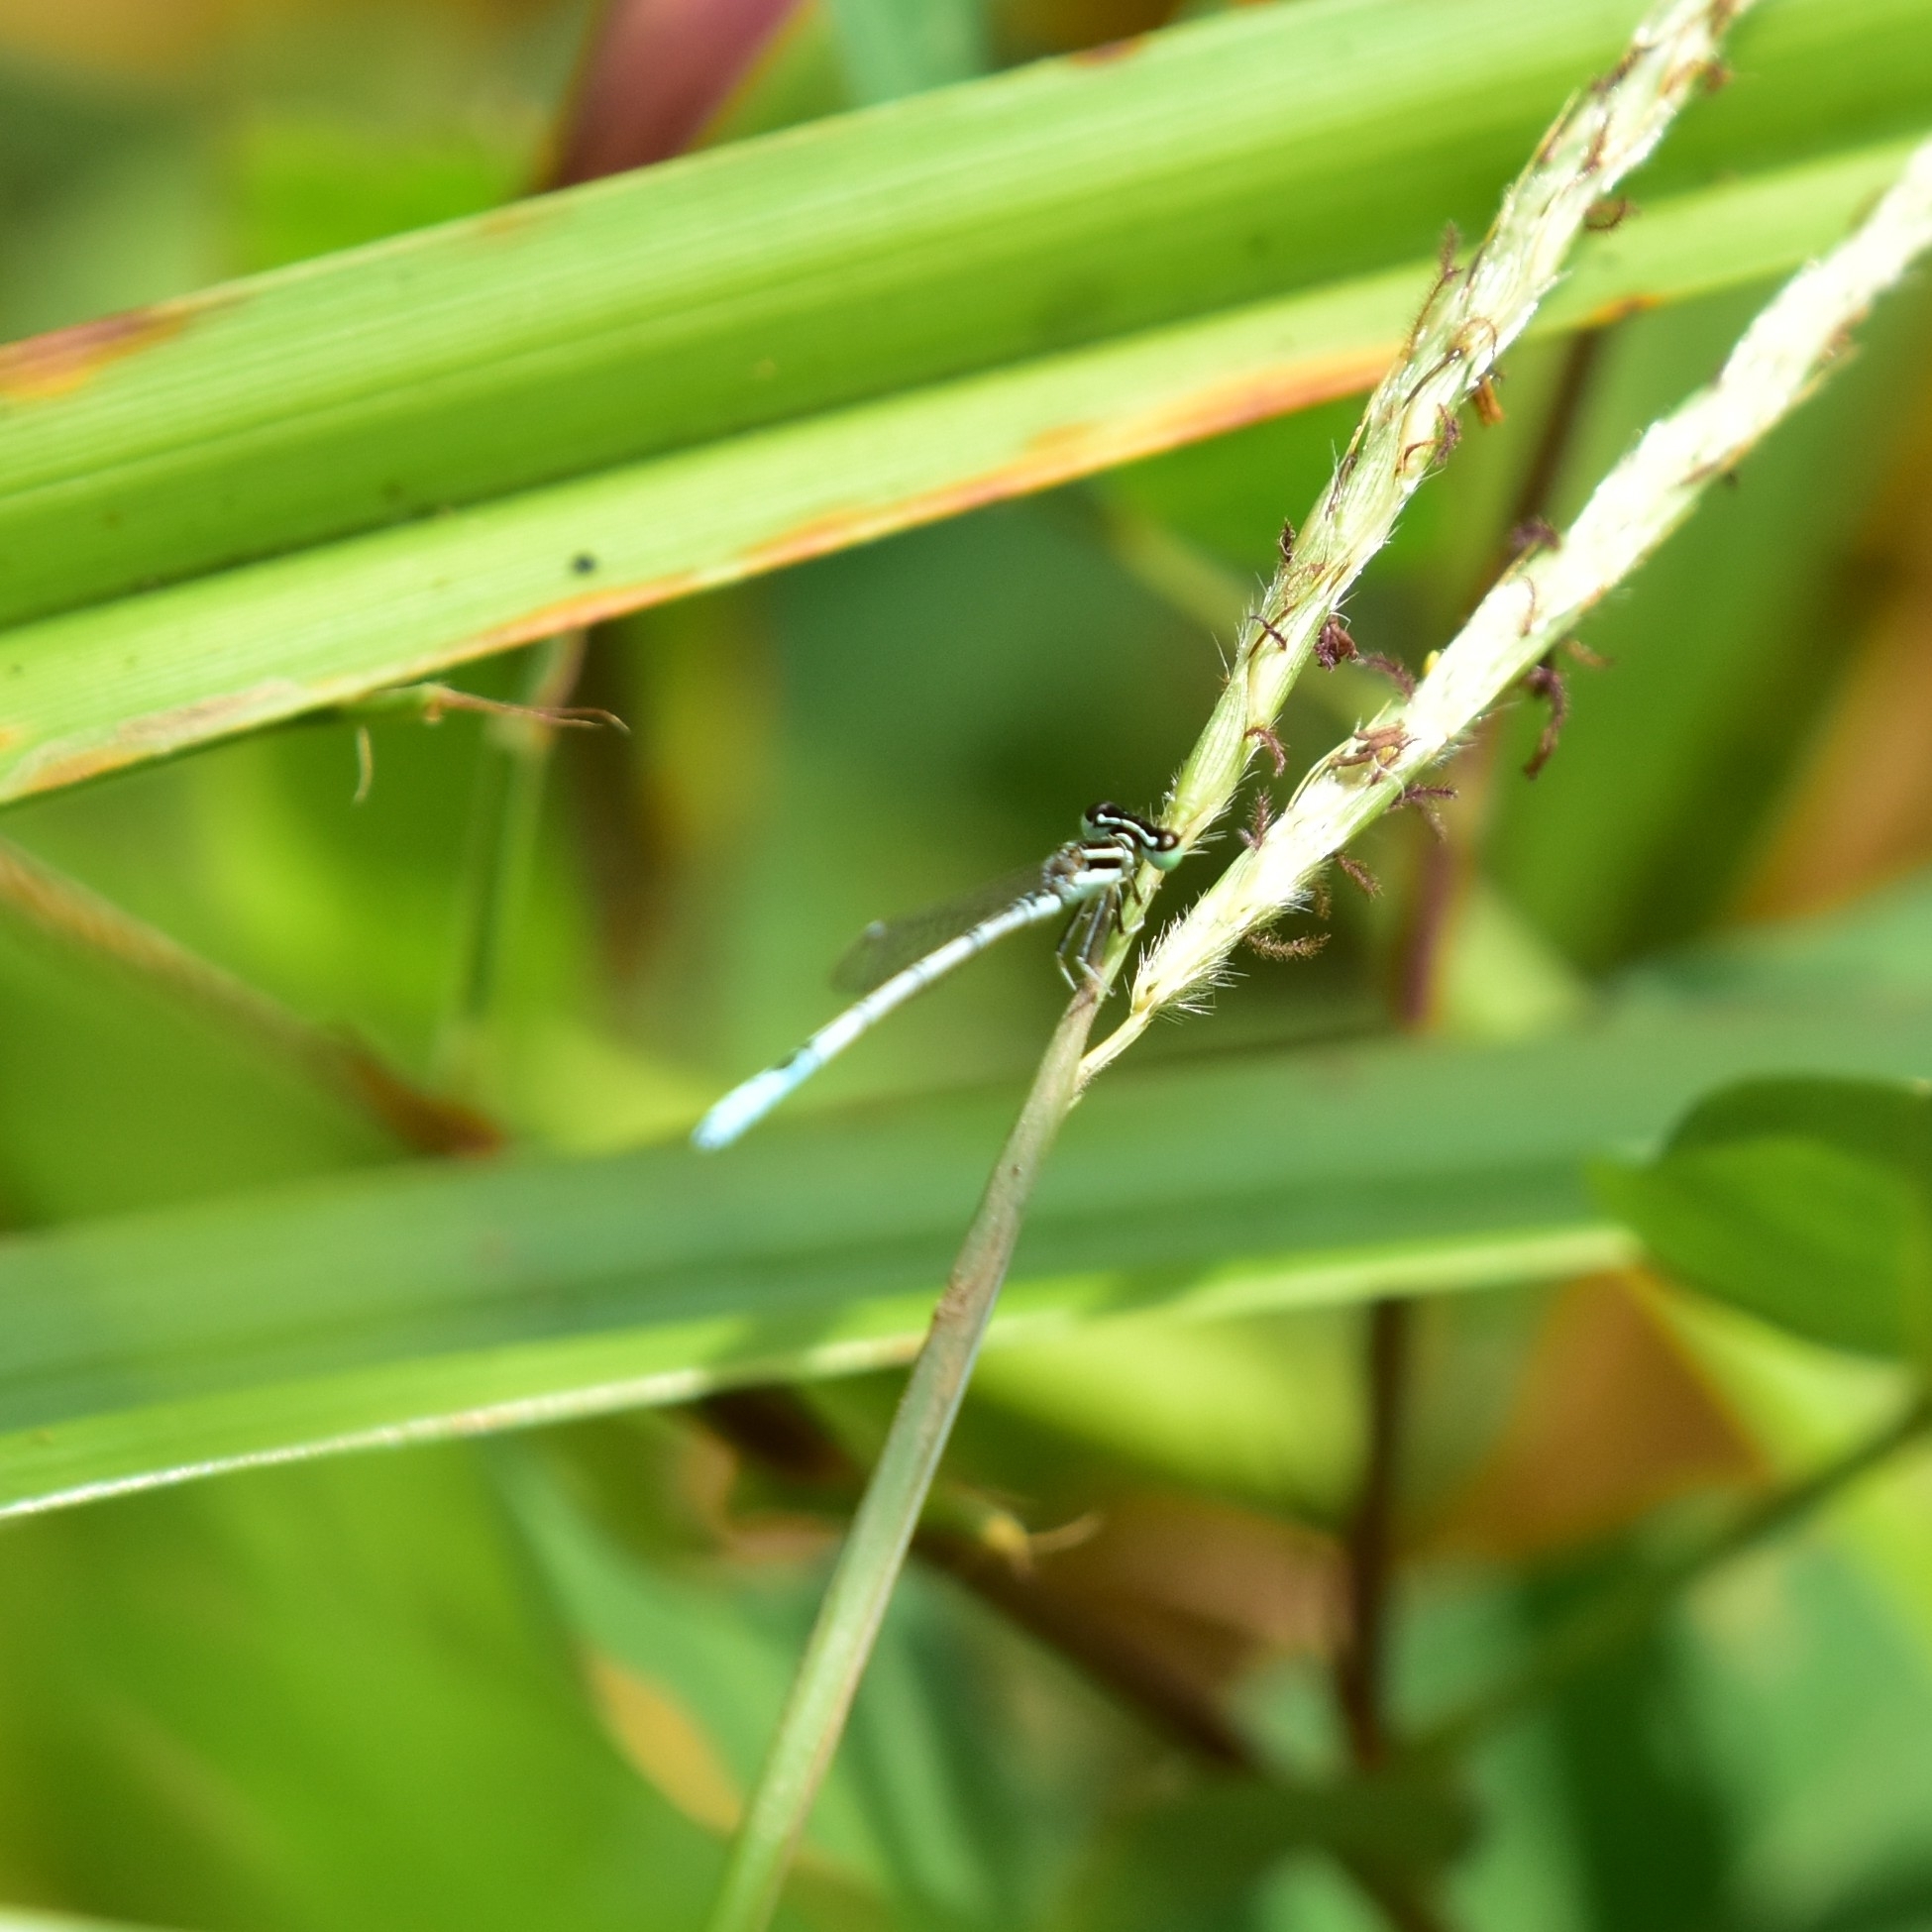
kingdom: Animalia
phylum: Arthropoda
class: Insecta
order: Odonata
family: Coenagrionidae
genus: Agriocnemis
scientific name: Agriocnemis pieris
